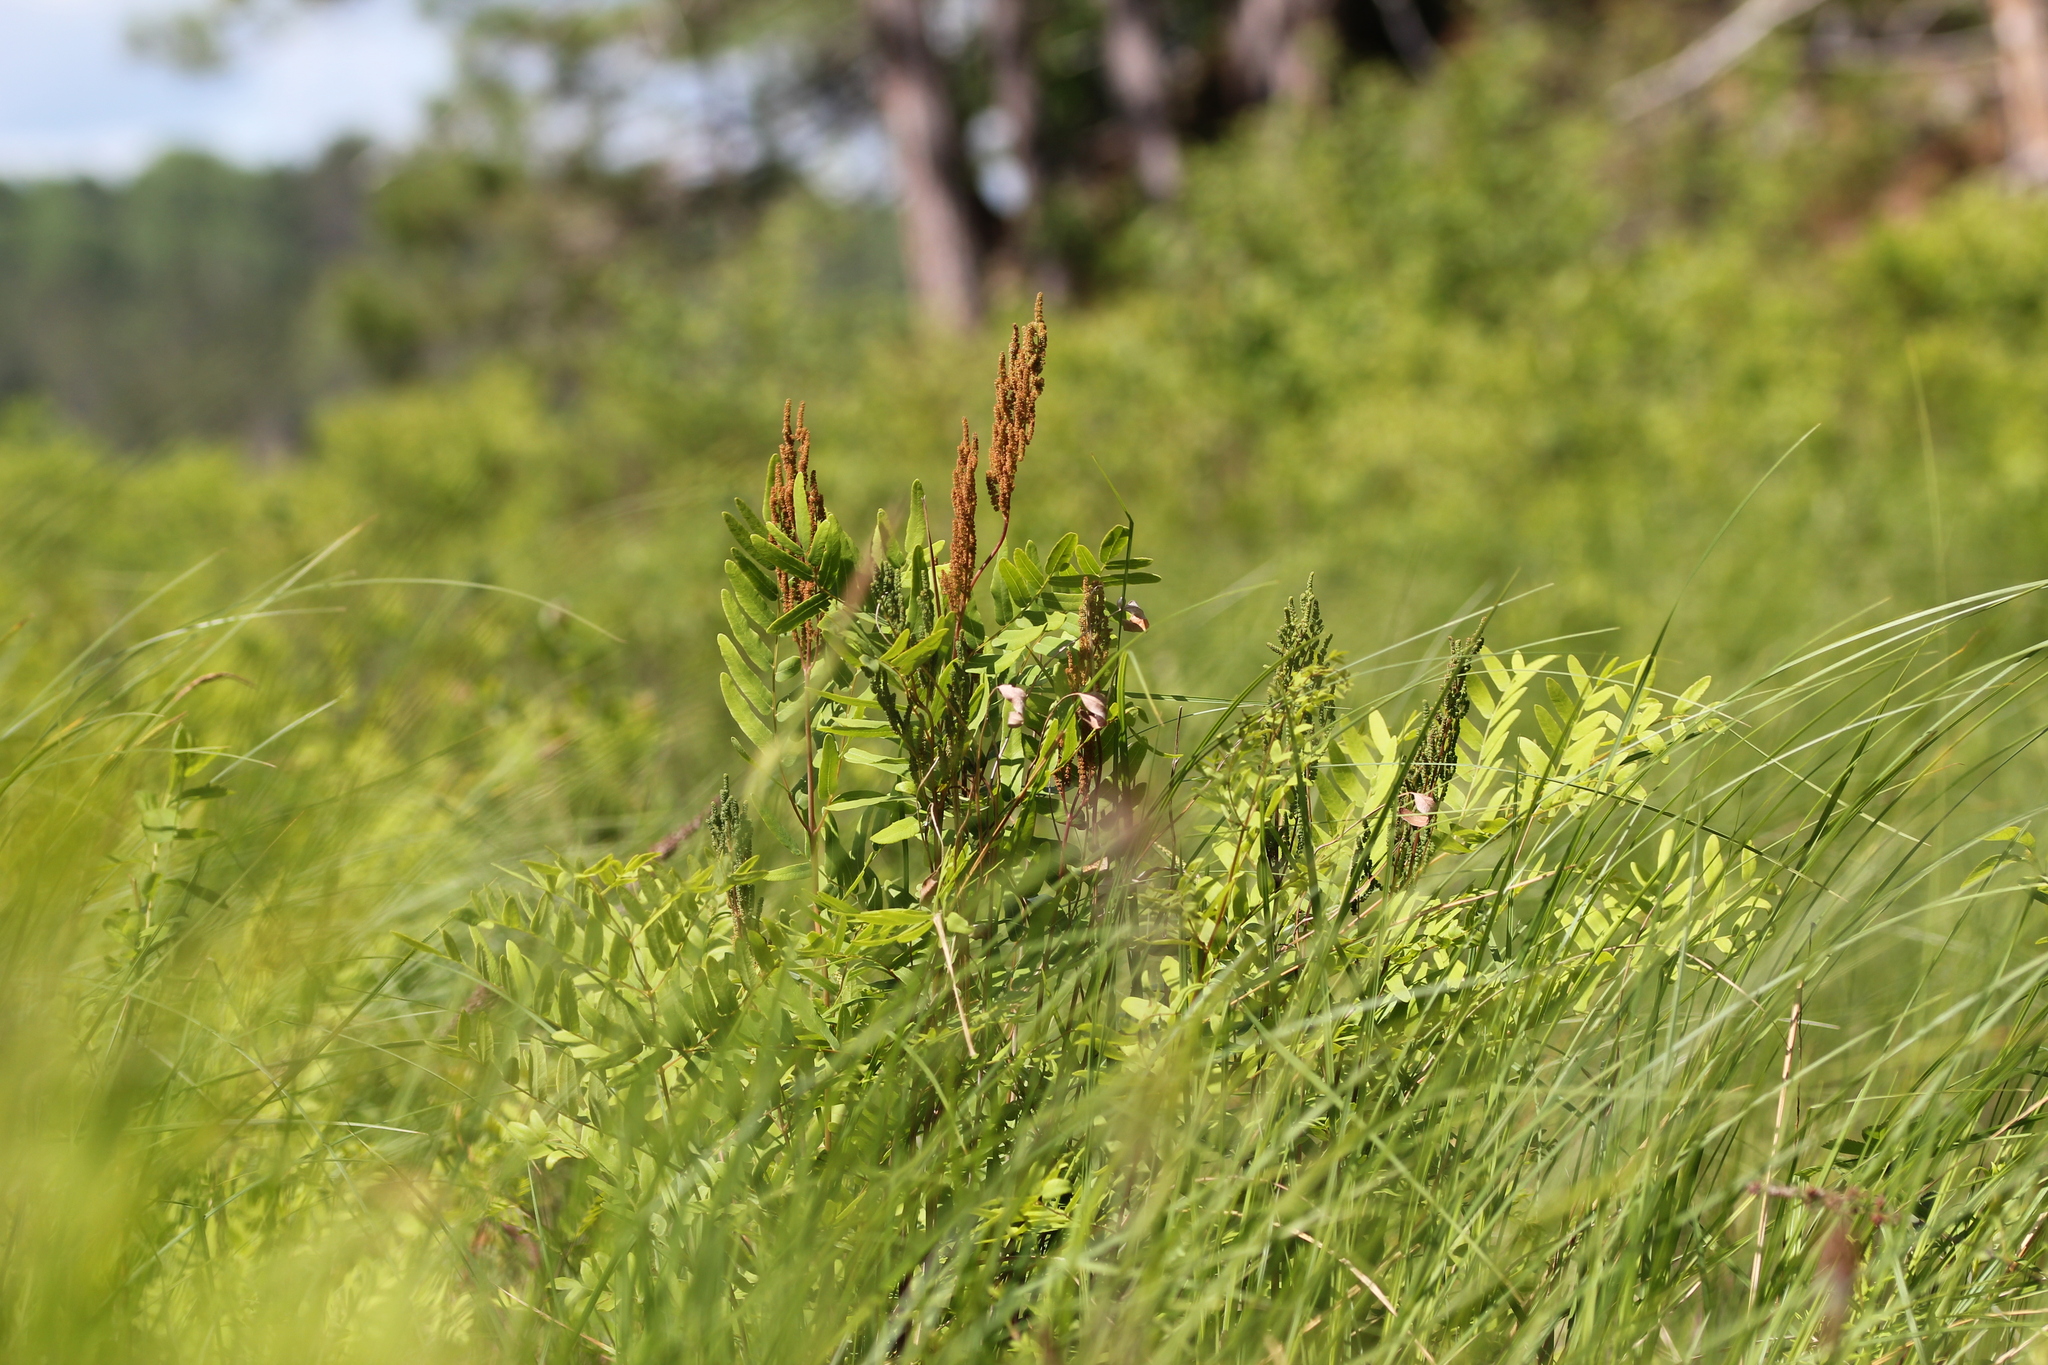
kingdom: Plantae
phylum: Tracheophyta
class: Polypodiopsida
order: Osmundales
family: Osmundaceae
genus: Osmunda
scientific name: Osmunda spectabilis
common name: American royal fern
